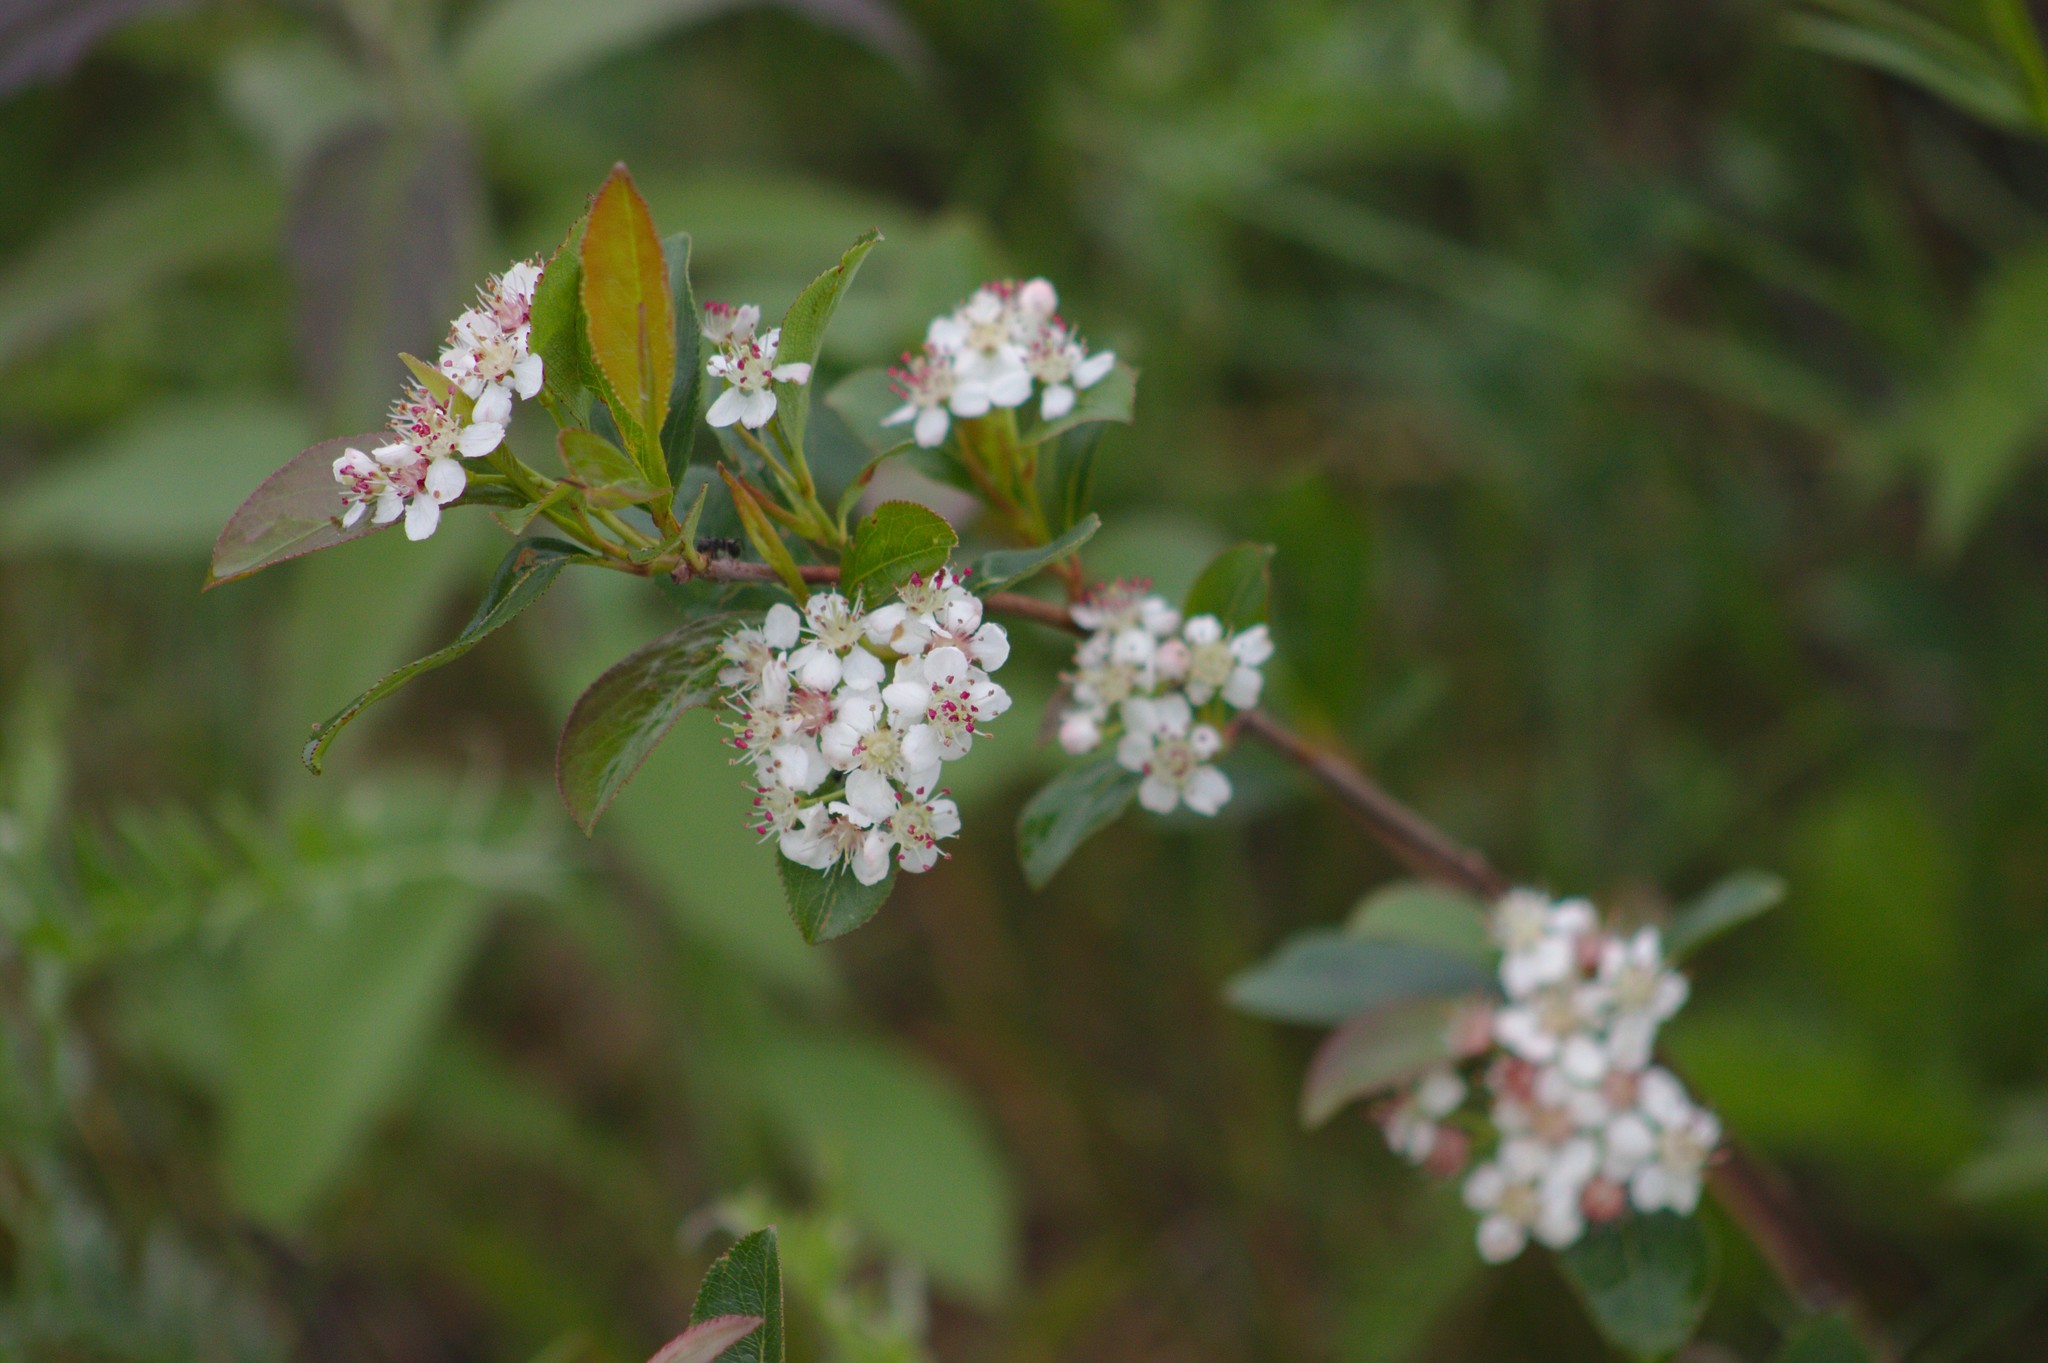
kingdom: Plantae
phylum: Tracheophyta
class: Magnoliopsida
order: Rosales
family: Rosaceae
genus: Aronia
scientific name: Aronia melanocarpa
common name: Black chokeberry
